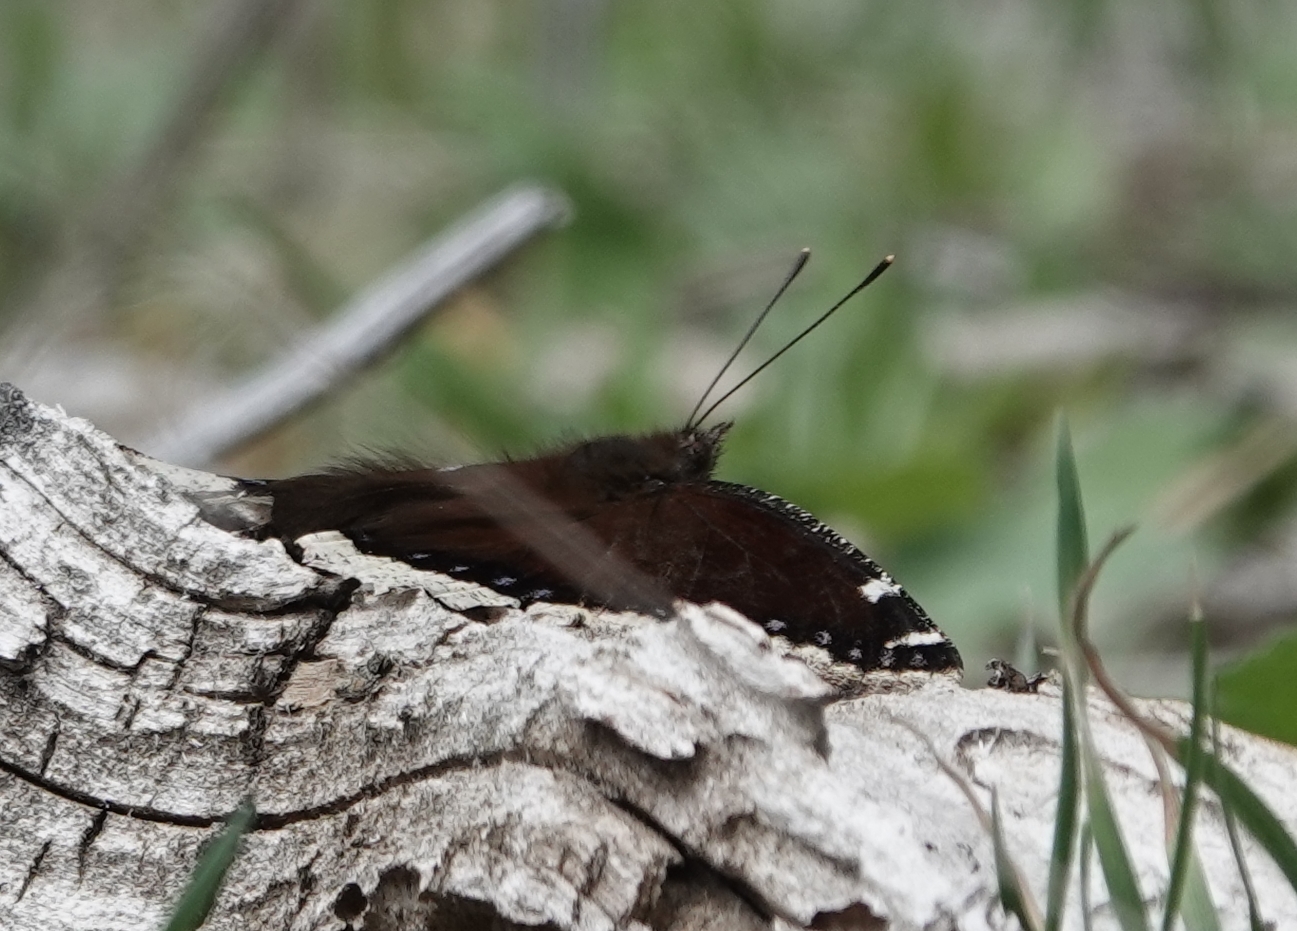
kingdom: Animalia
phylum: Arthropoda
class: Insecta
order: Lepidoptera
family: Nymphalidae
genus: Nymphalis
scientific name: Nymphalis antiopa
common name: Camberwell beauty
